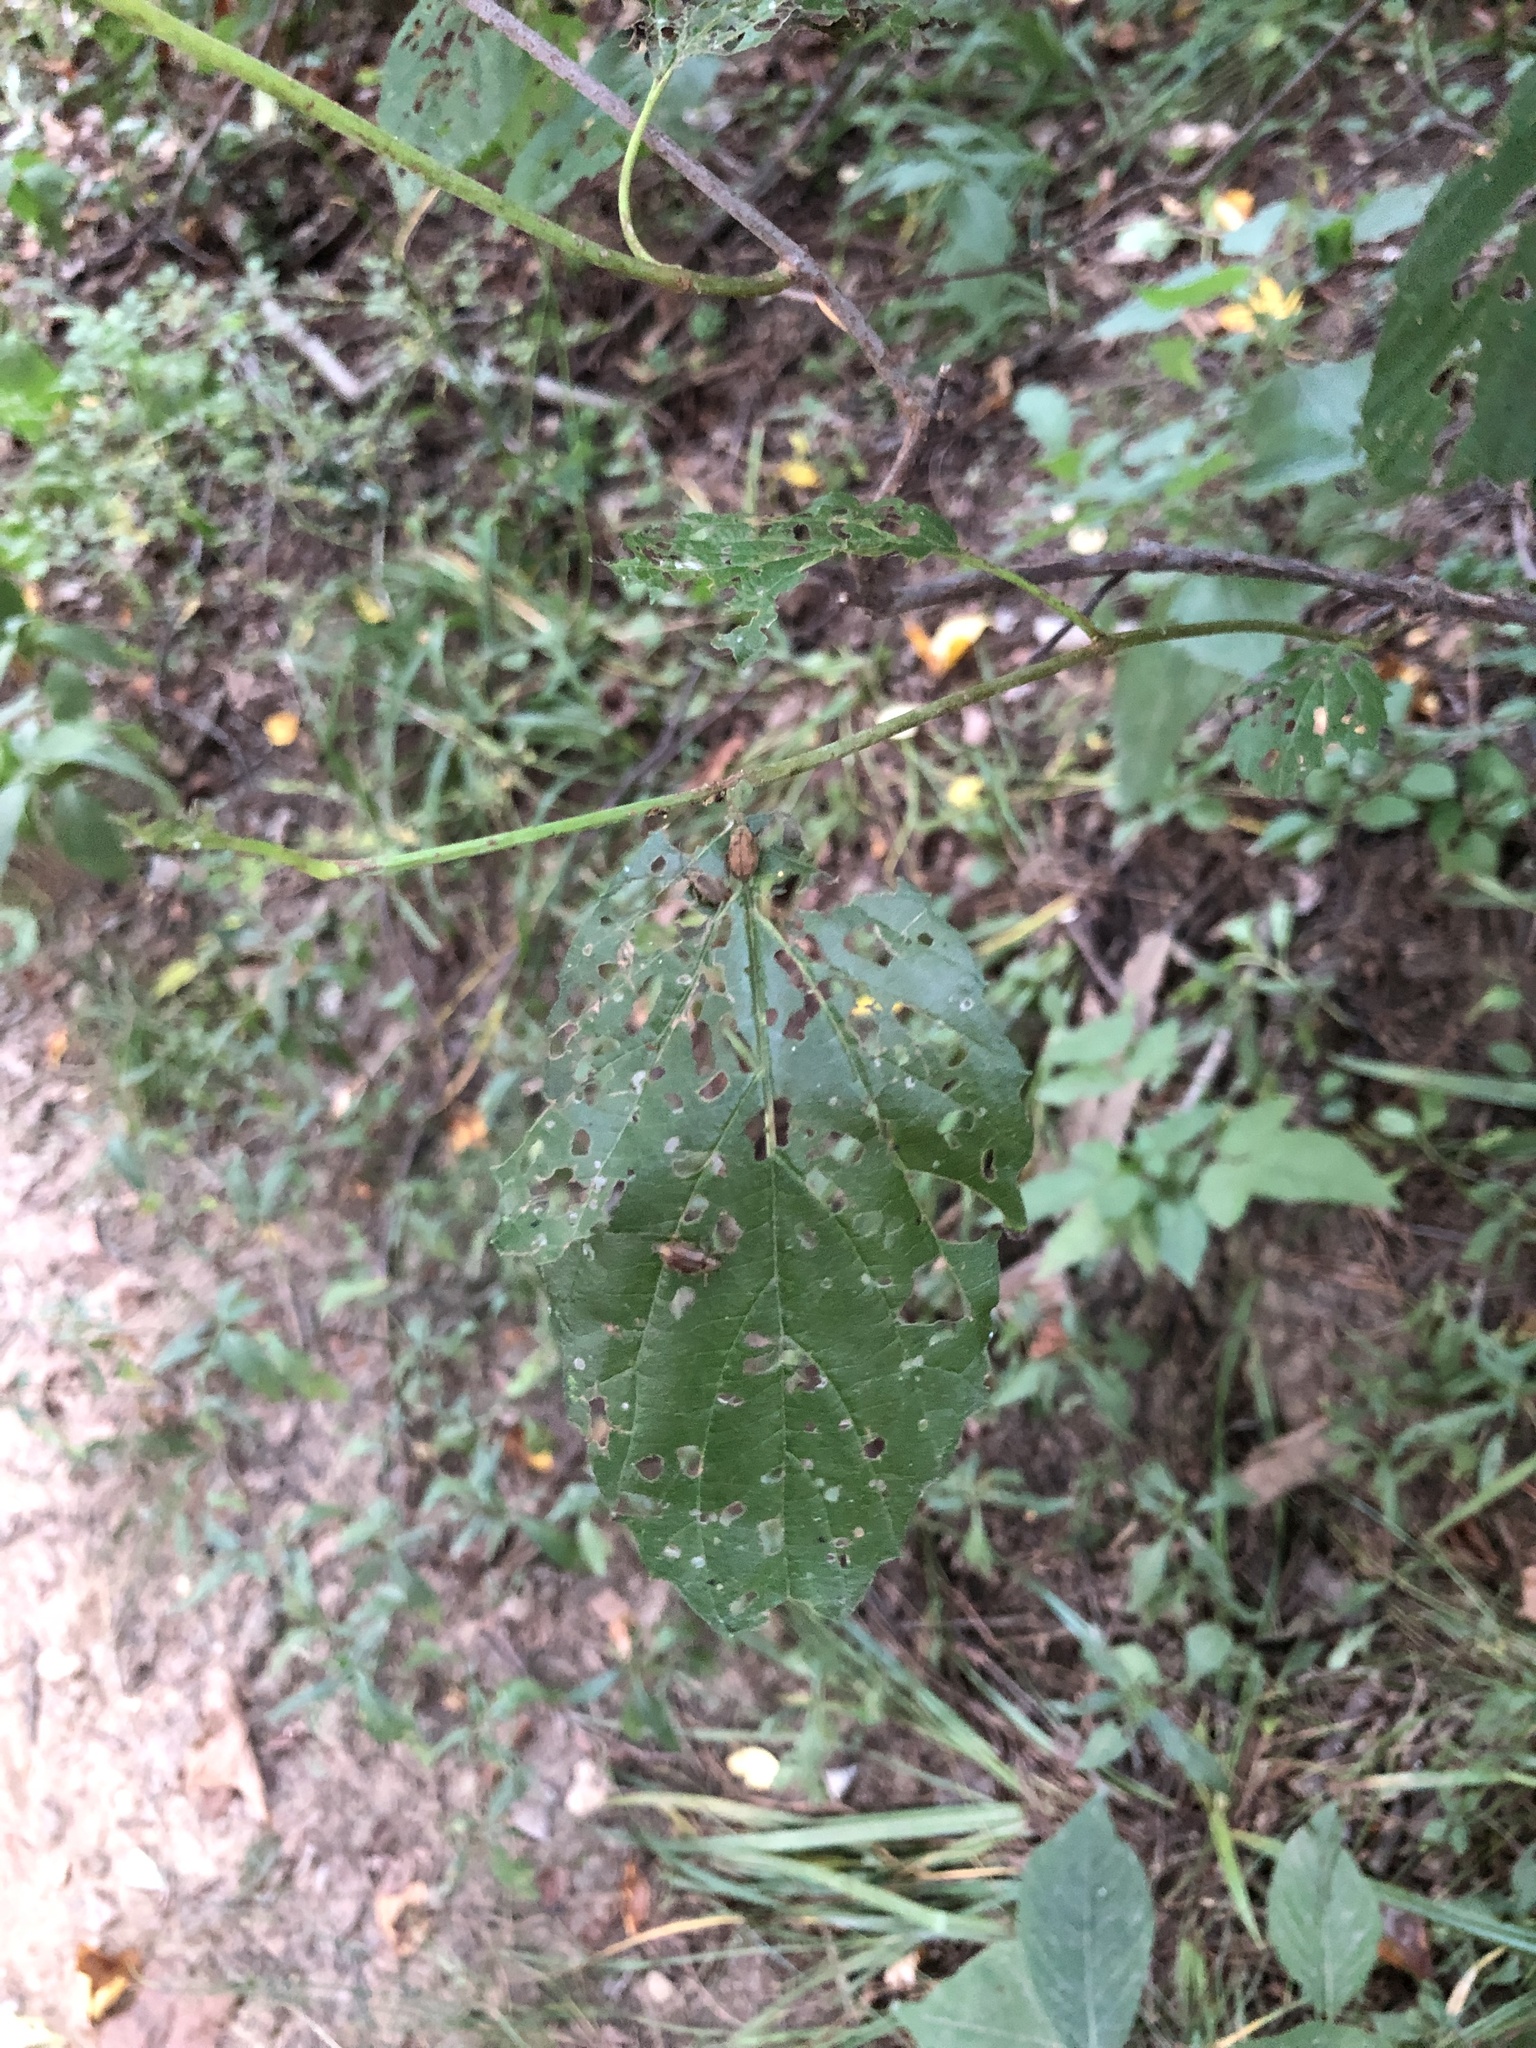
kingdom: Plantae
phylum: Tracheophyta
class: Magnoliopsida
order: Dipsacales
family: Viburnaceae
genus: Viburnum
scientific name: Viburnum recognitum
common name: Northern arrow-wood
